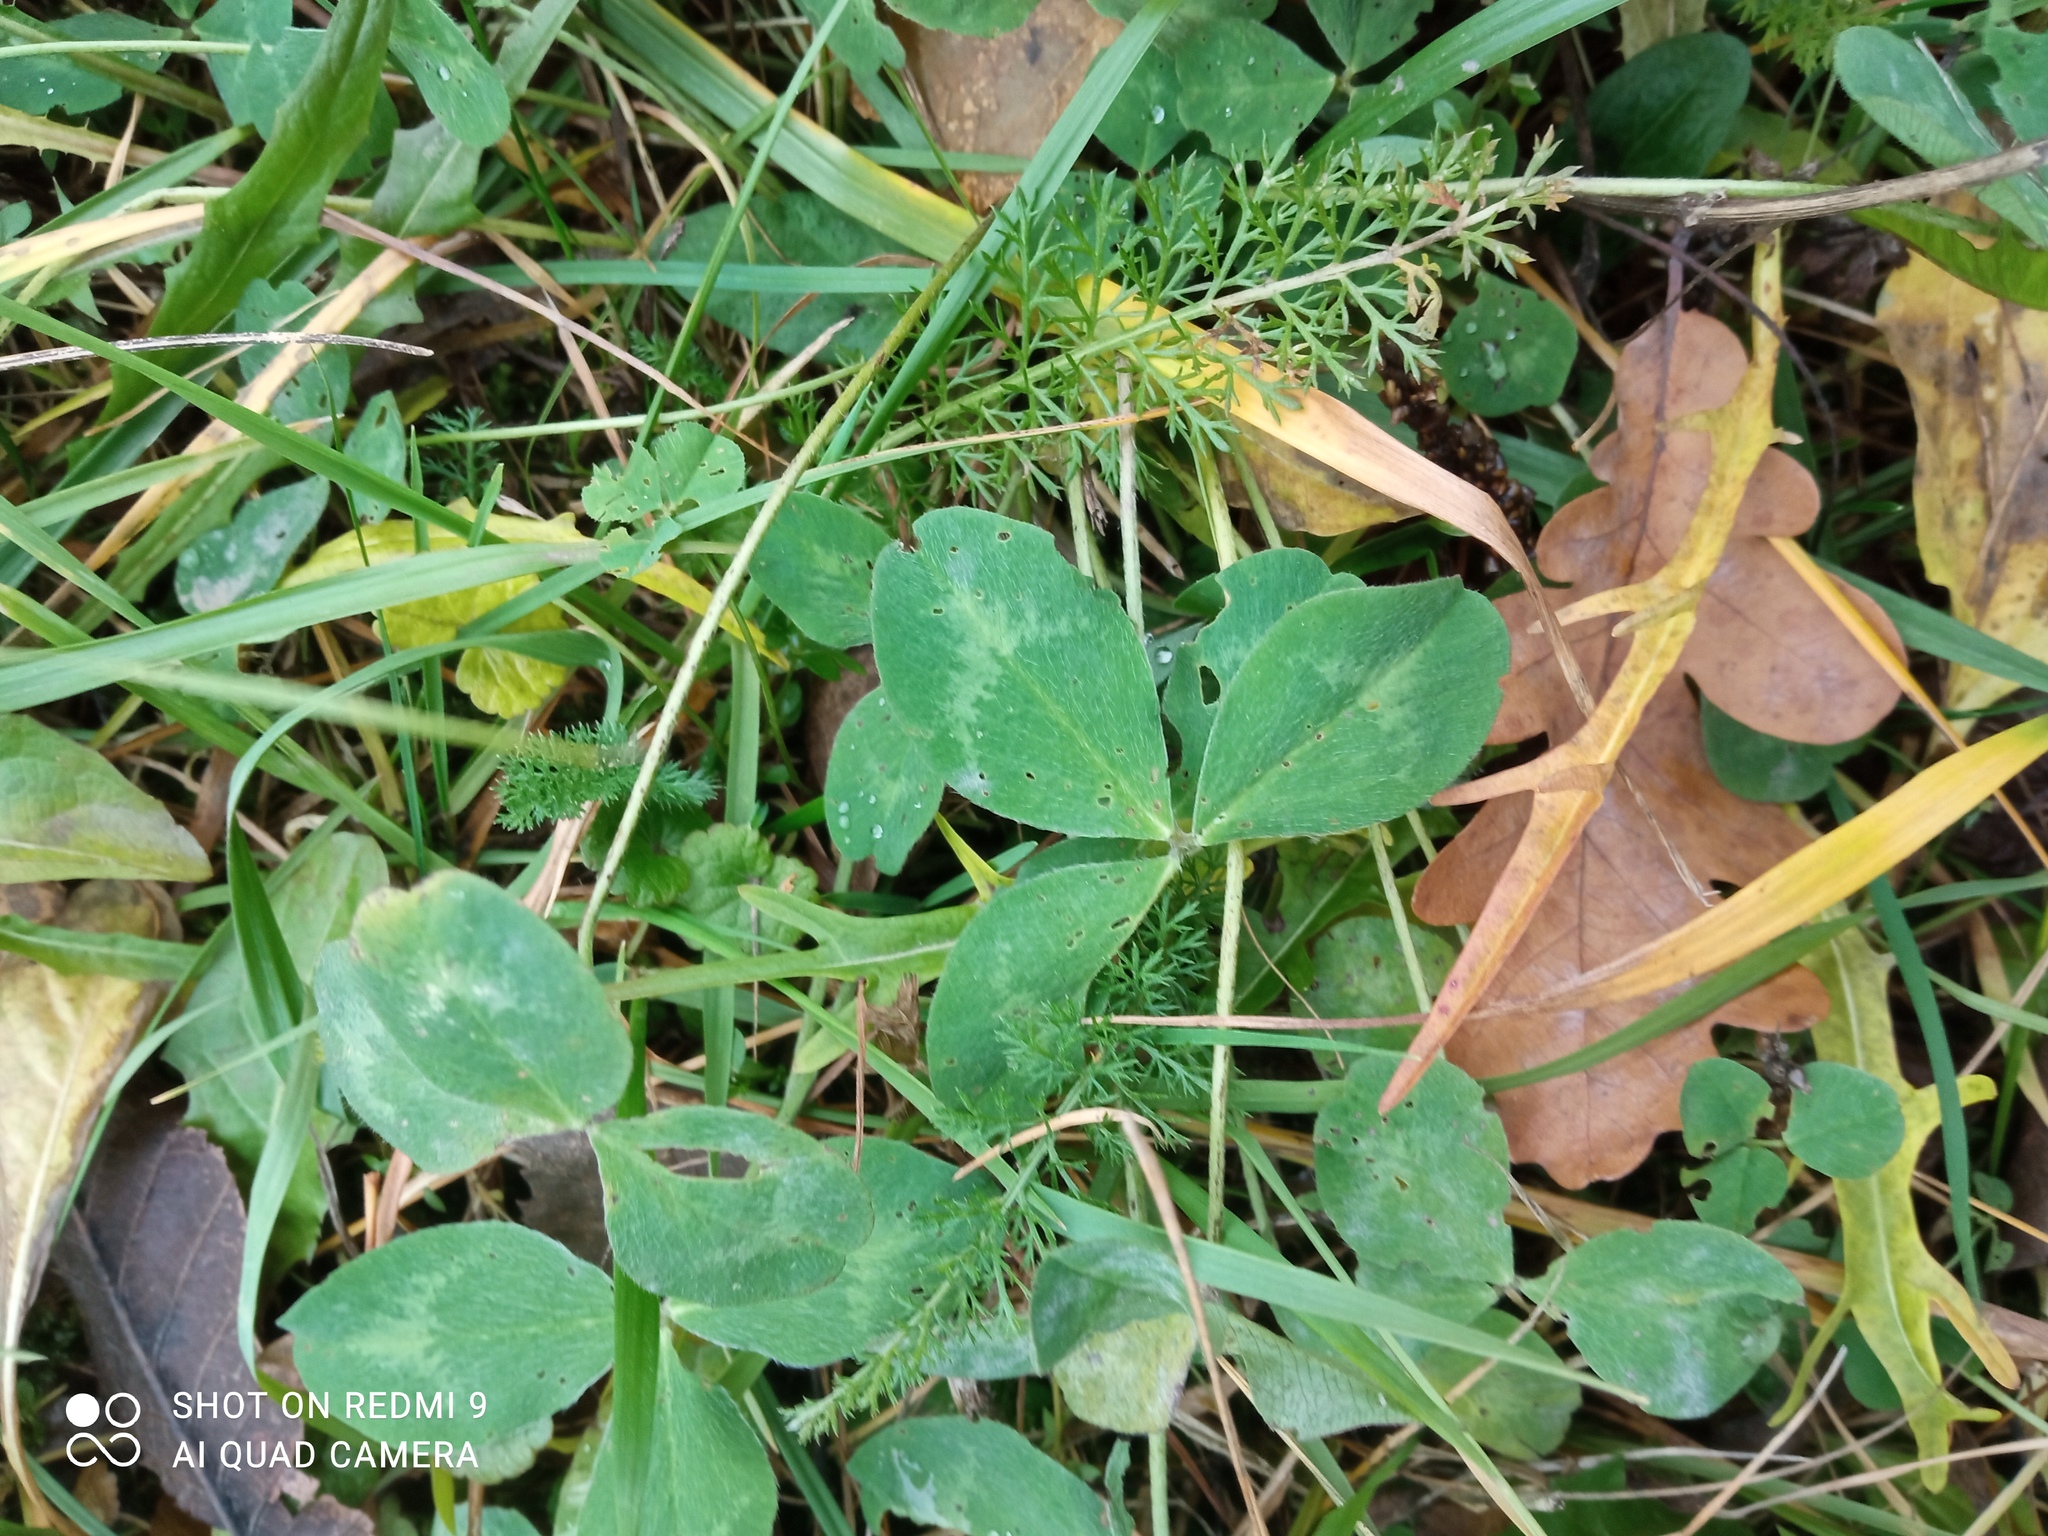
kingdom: Plantae
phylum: Tracheophyta
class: Magnoliopsida
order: Fabales
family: Fabaceae
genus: Trifolium
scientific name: Trifolium pratense
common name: Red clover
